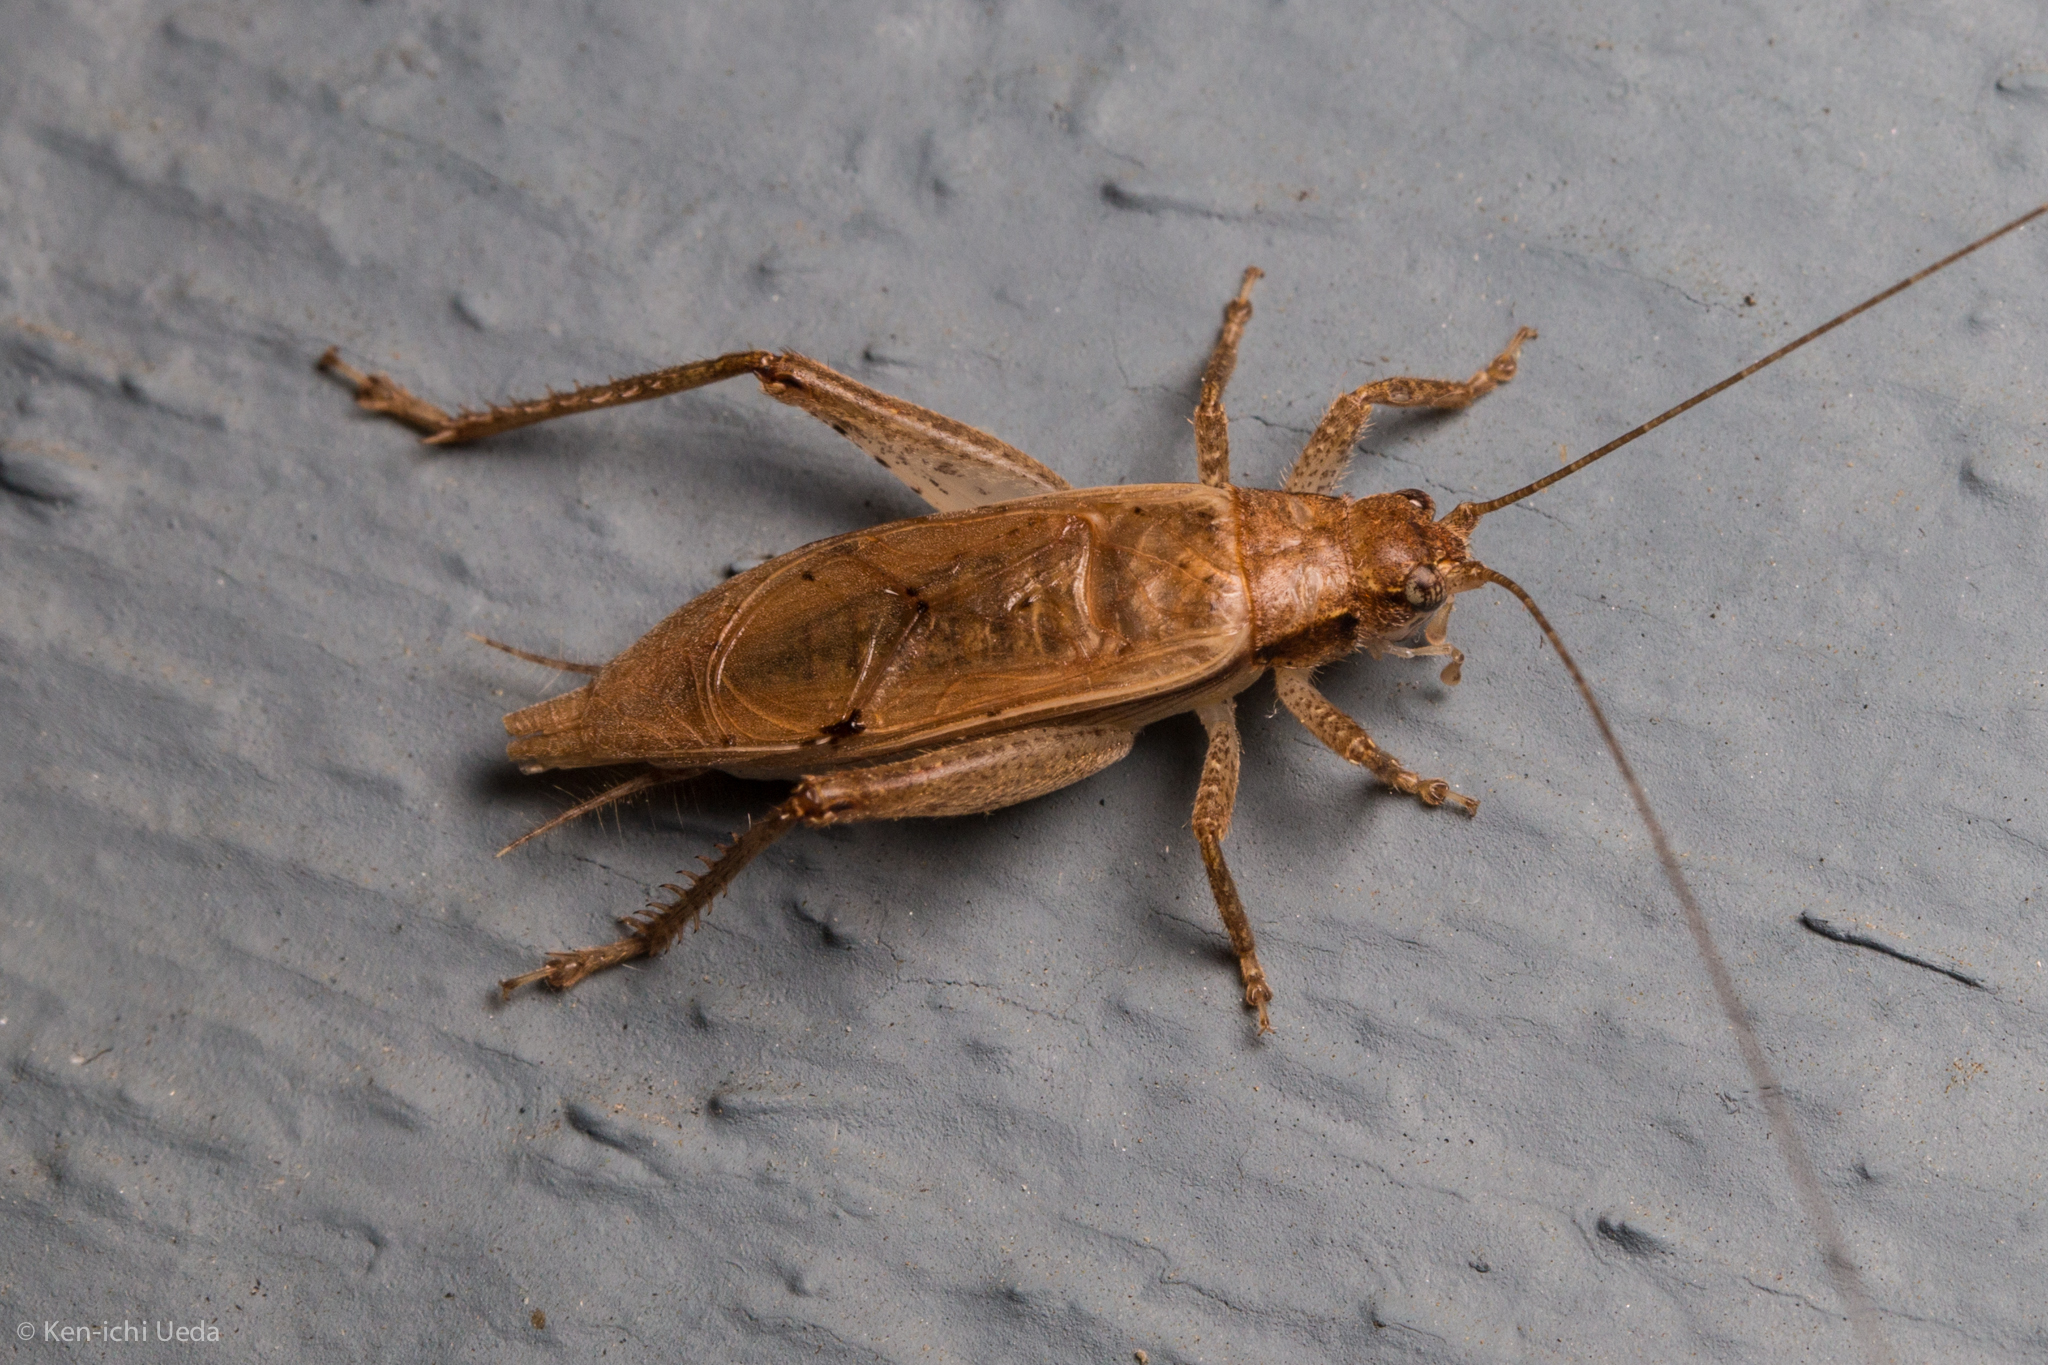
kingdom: Animalia
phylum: Arthropoda
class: Insecta
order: Orthoptera
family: Gryllidae
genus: Hapithus
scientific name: Hapithus saltator
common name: Jumping bush cricket
